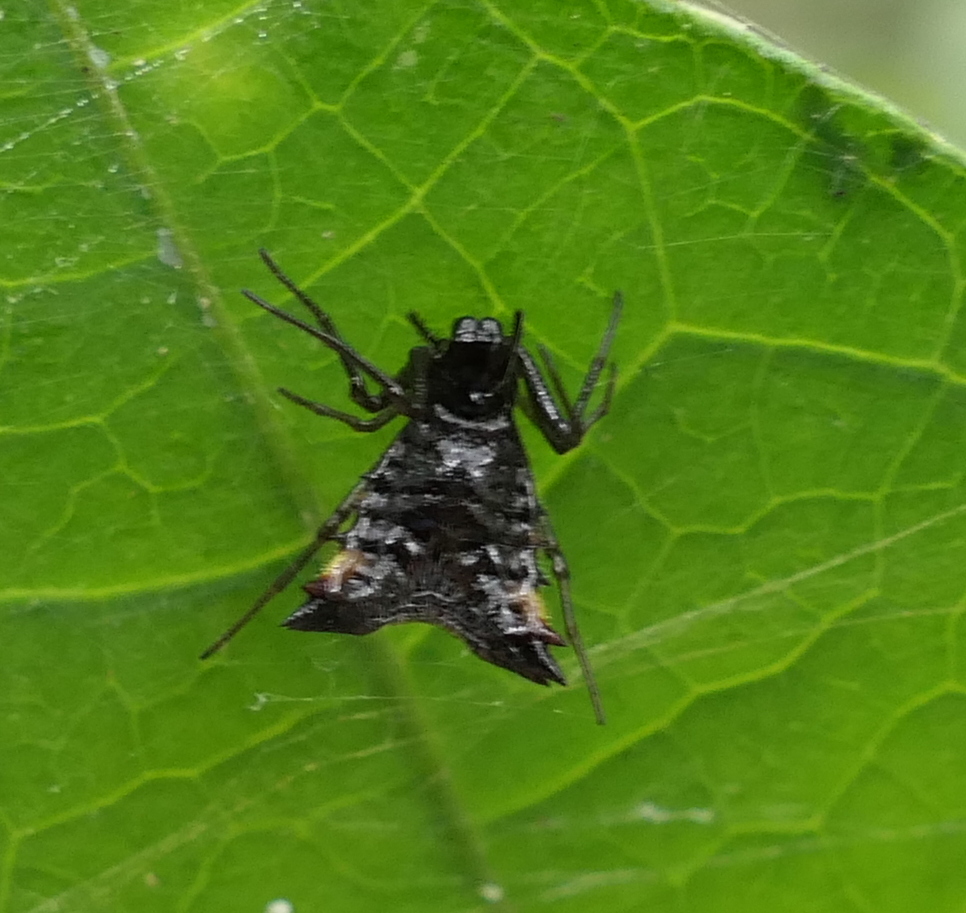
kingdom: Animalia
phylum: Arthropoda
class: Arachnida
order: Araneae
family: Araneidae
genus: Micrathena
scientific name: Micrathena triangularis
